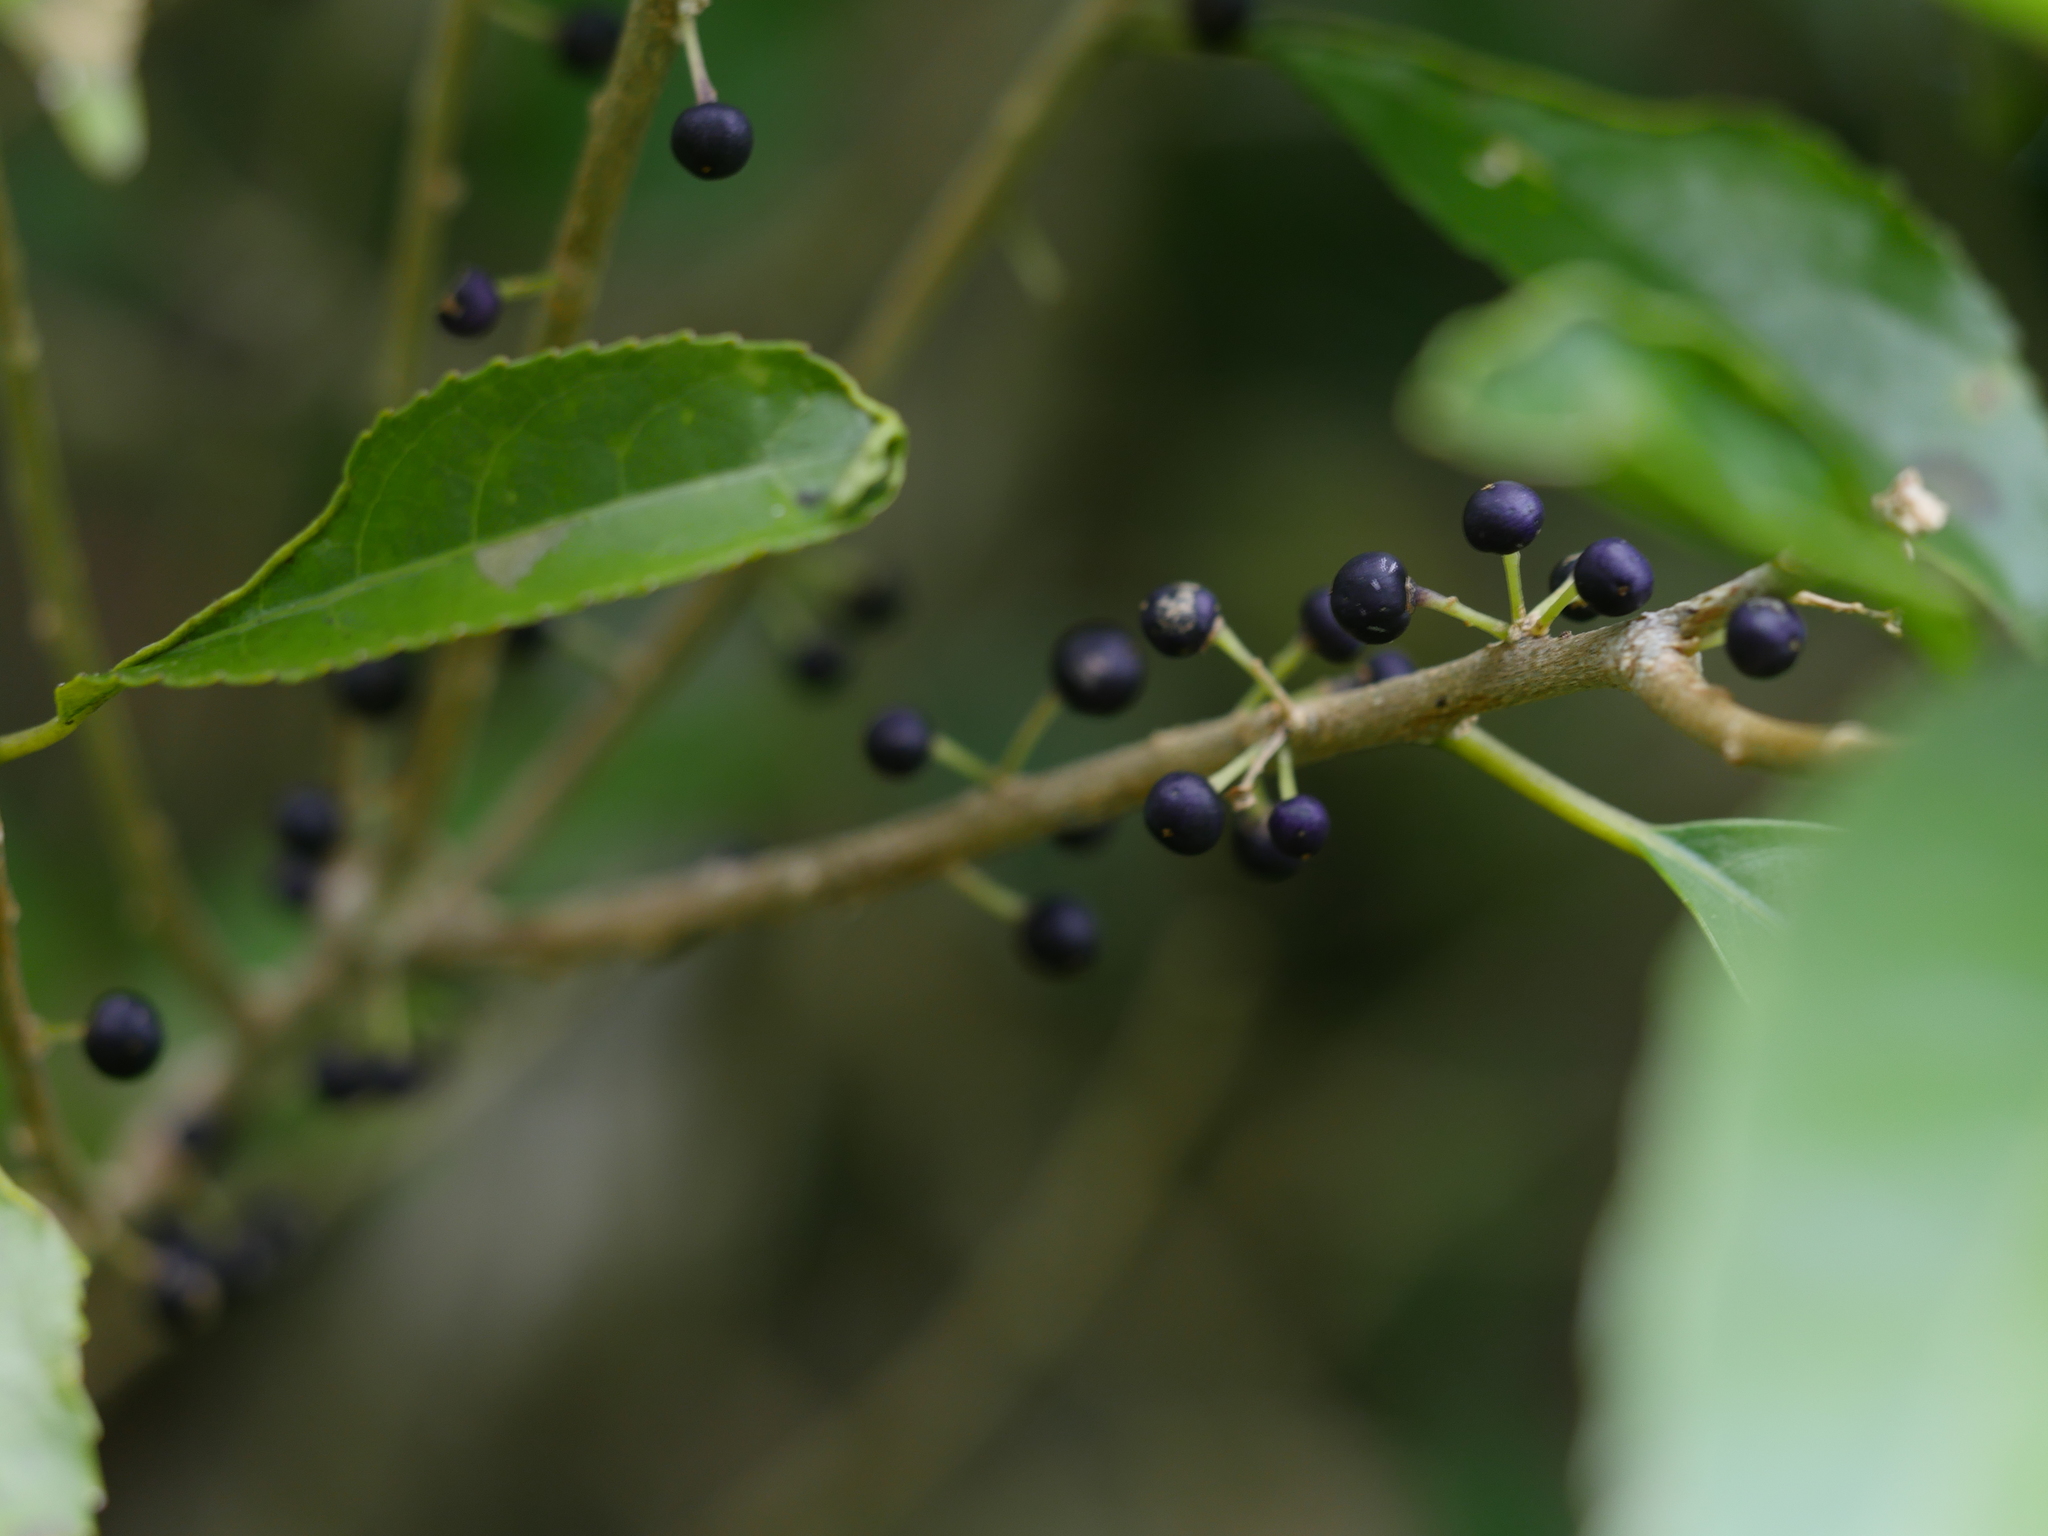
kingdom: Plantae
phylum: Tracheophyta
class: Magnoliopsida
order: Malpighiales
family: Violaceae
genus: Melicytus
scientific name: Melicytus ramiflorus
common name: Mahoe
